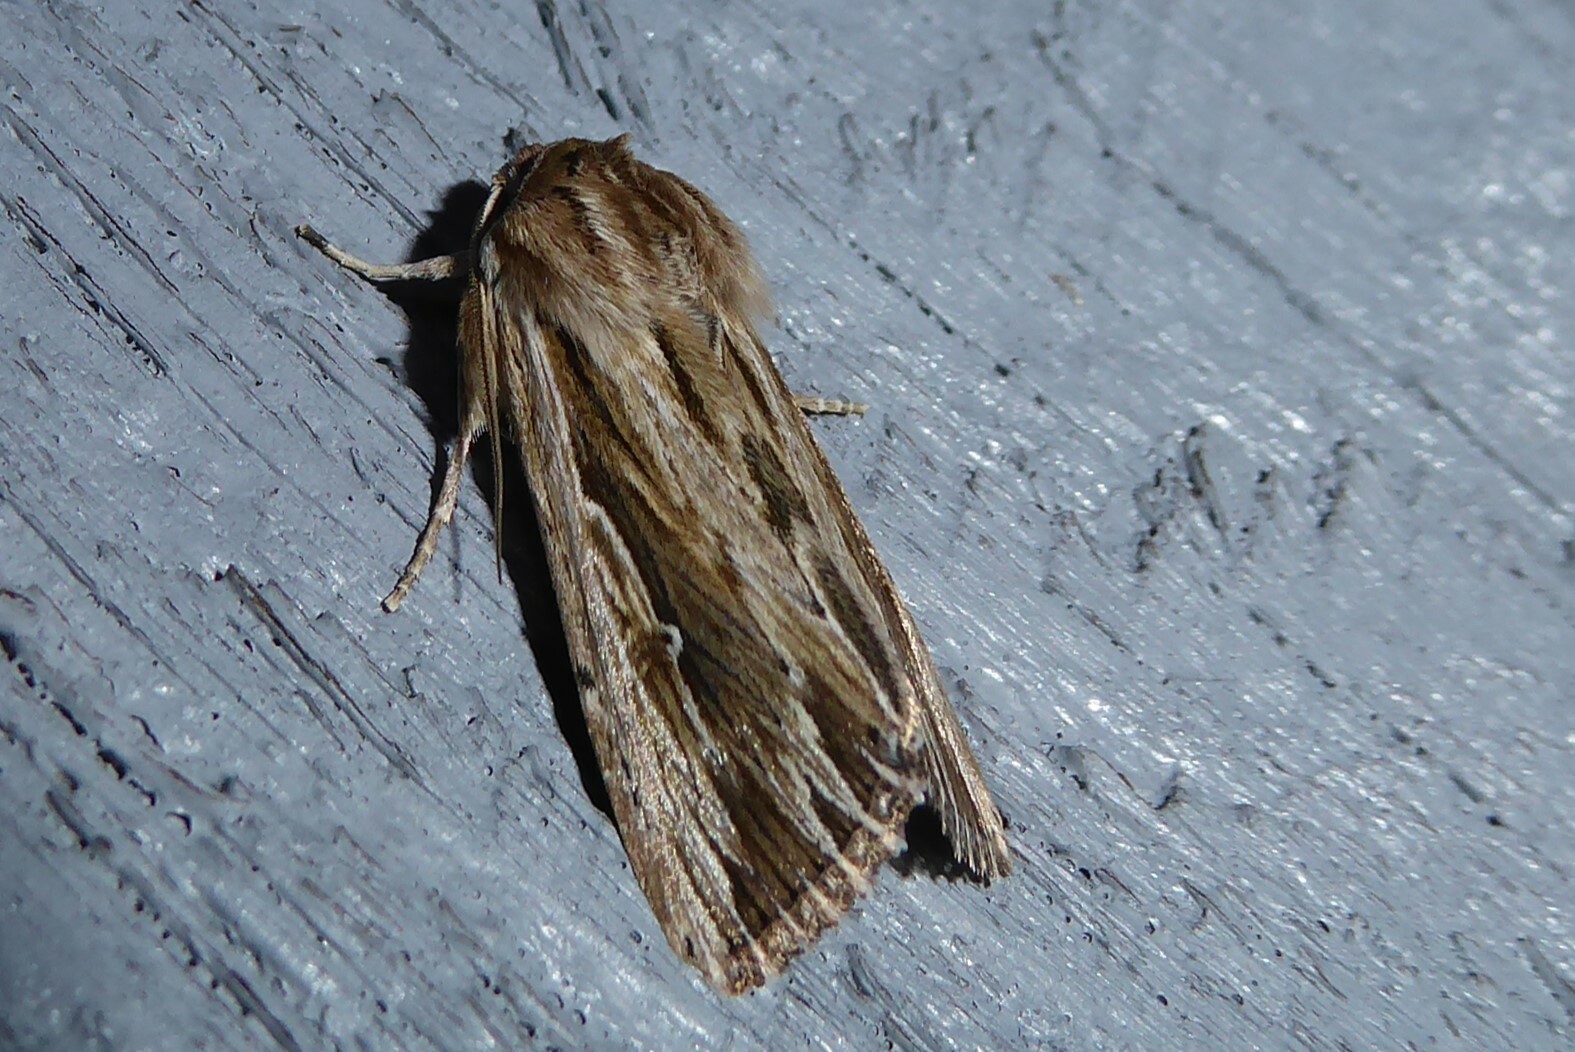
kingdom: Animalia
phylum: Arthropoda
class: Insecta
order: Lepidoptera
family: Noctuidae
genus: Persectania
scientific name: Persectania aversa
